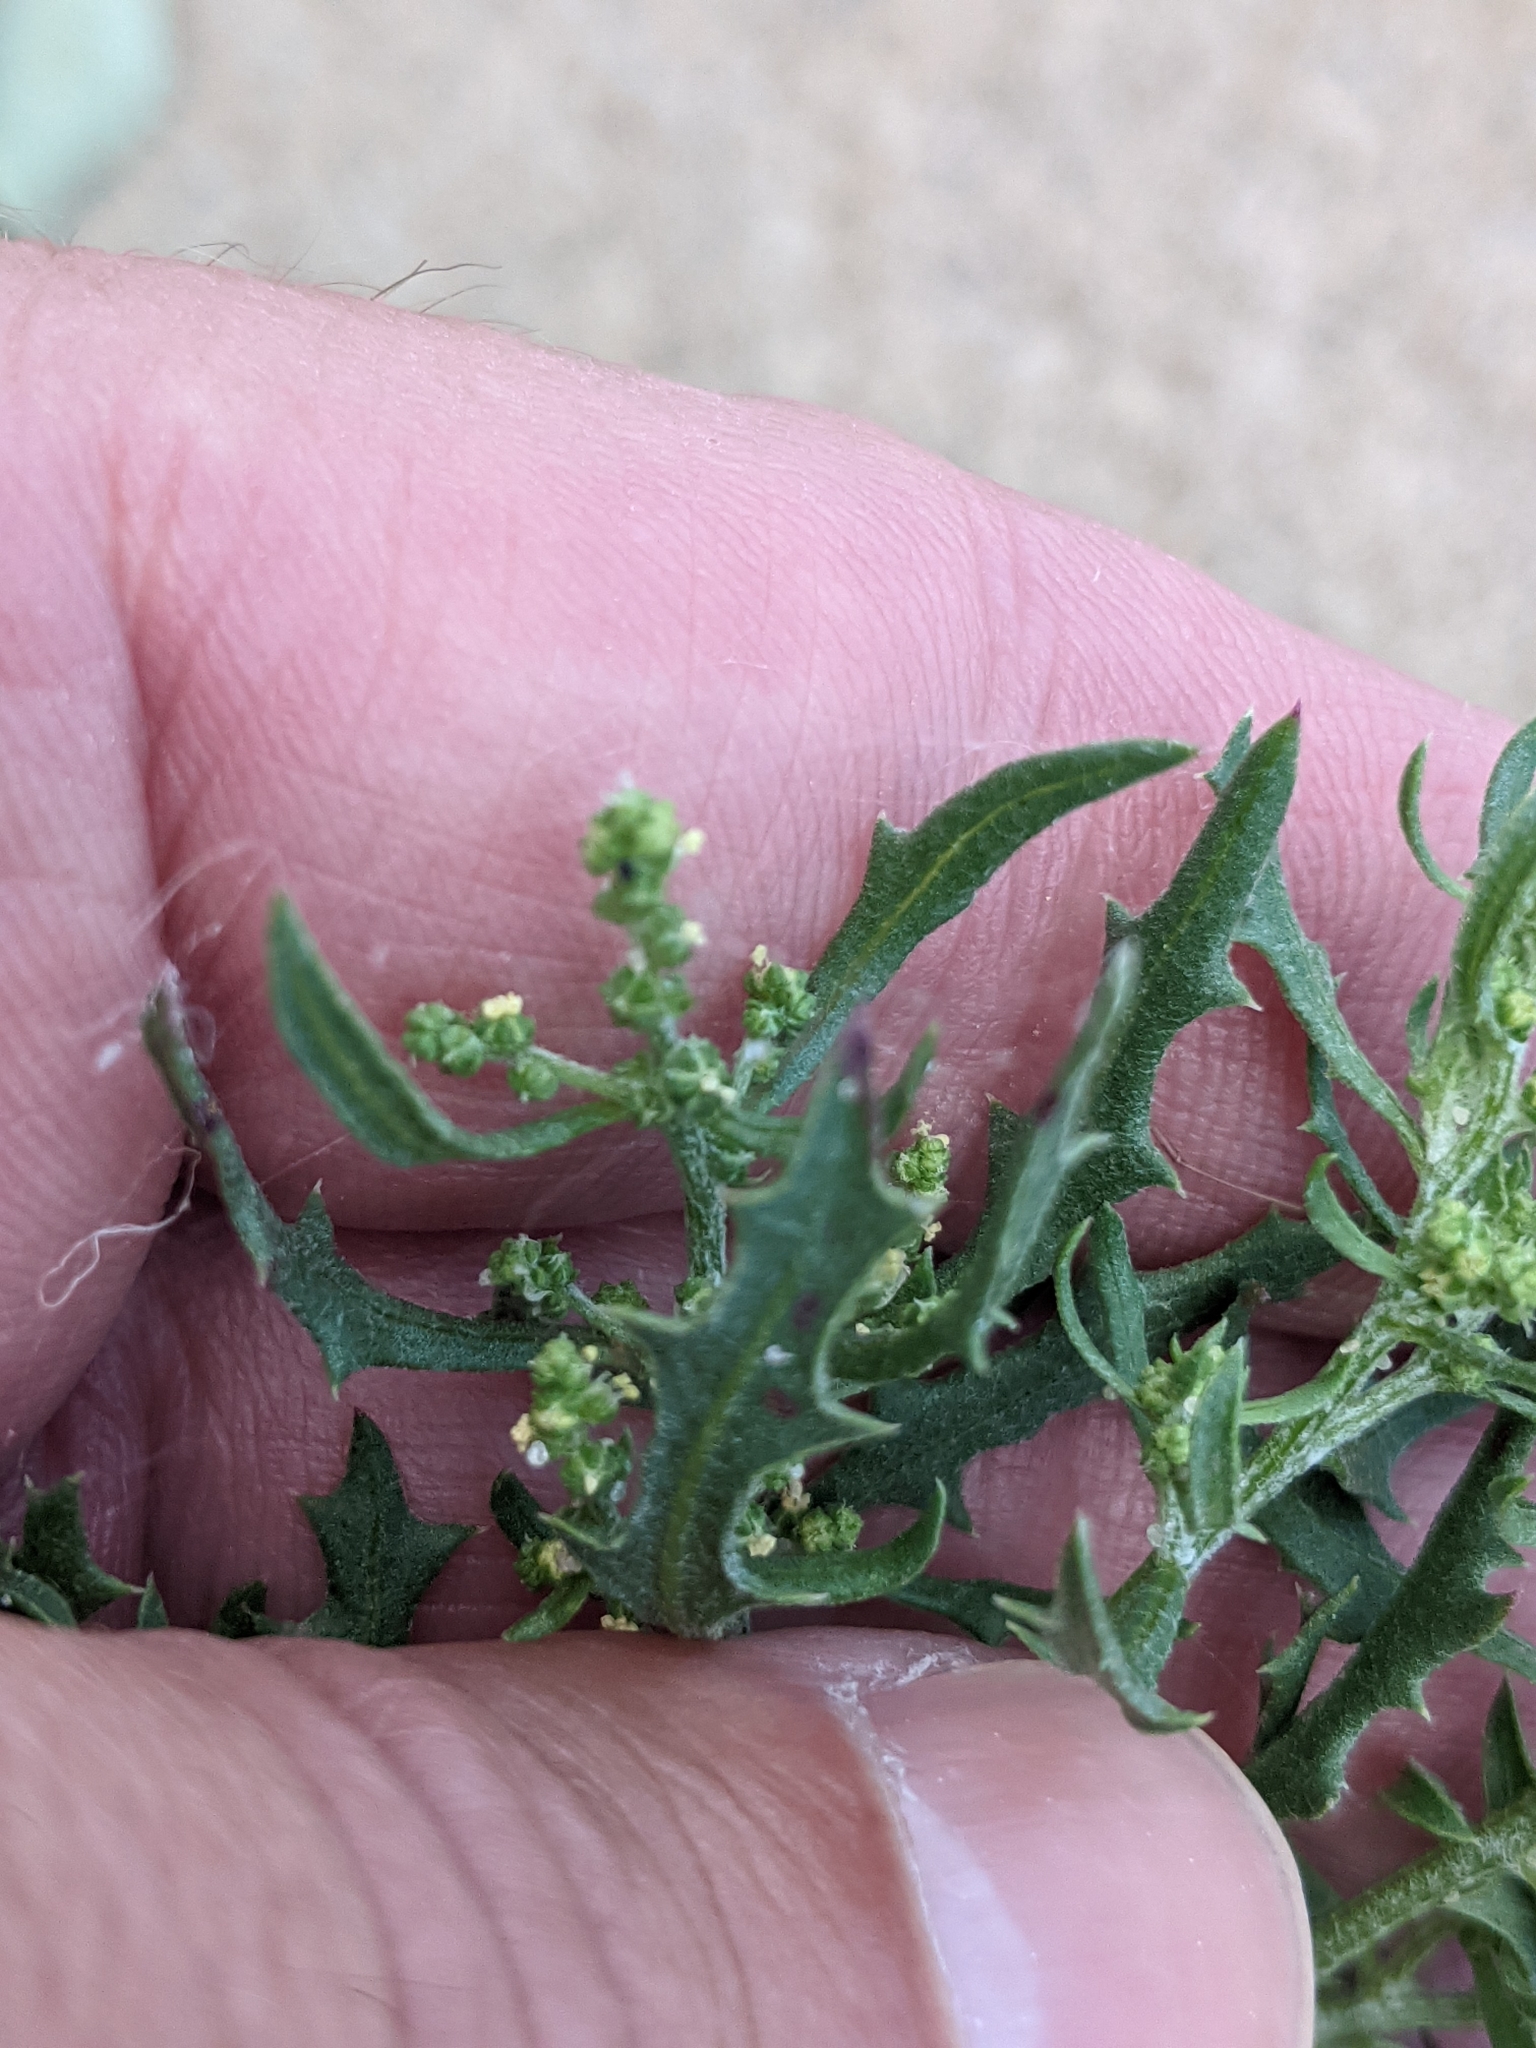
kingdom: Plantae
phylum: Tracheophyta
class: Magnoliopsida
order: Caryophyllales
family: Amaranthaceae
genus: Dysphania
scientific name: Dysphania atriplicifolia
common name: Plains tumbleweed
